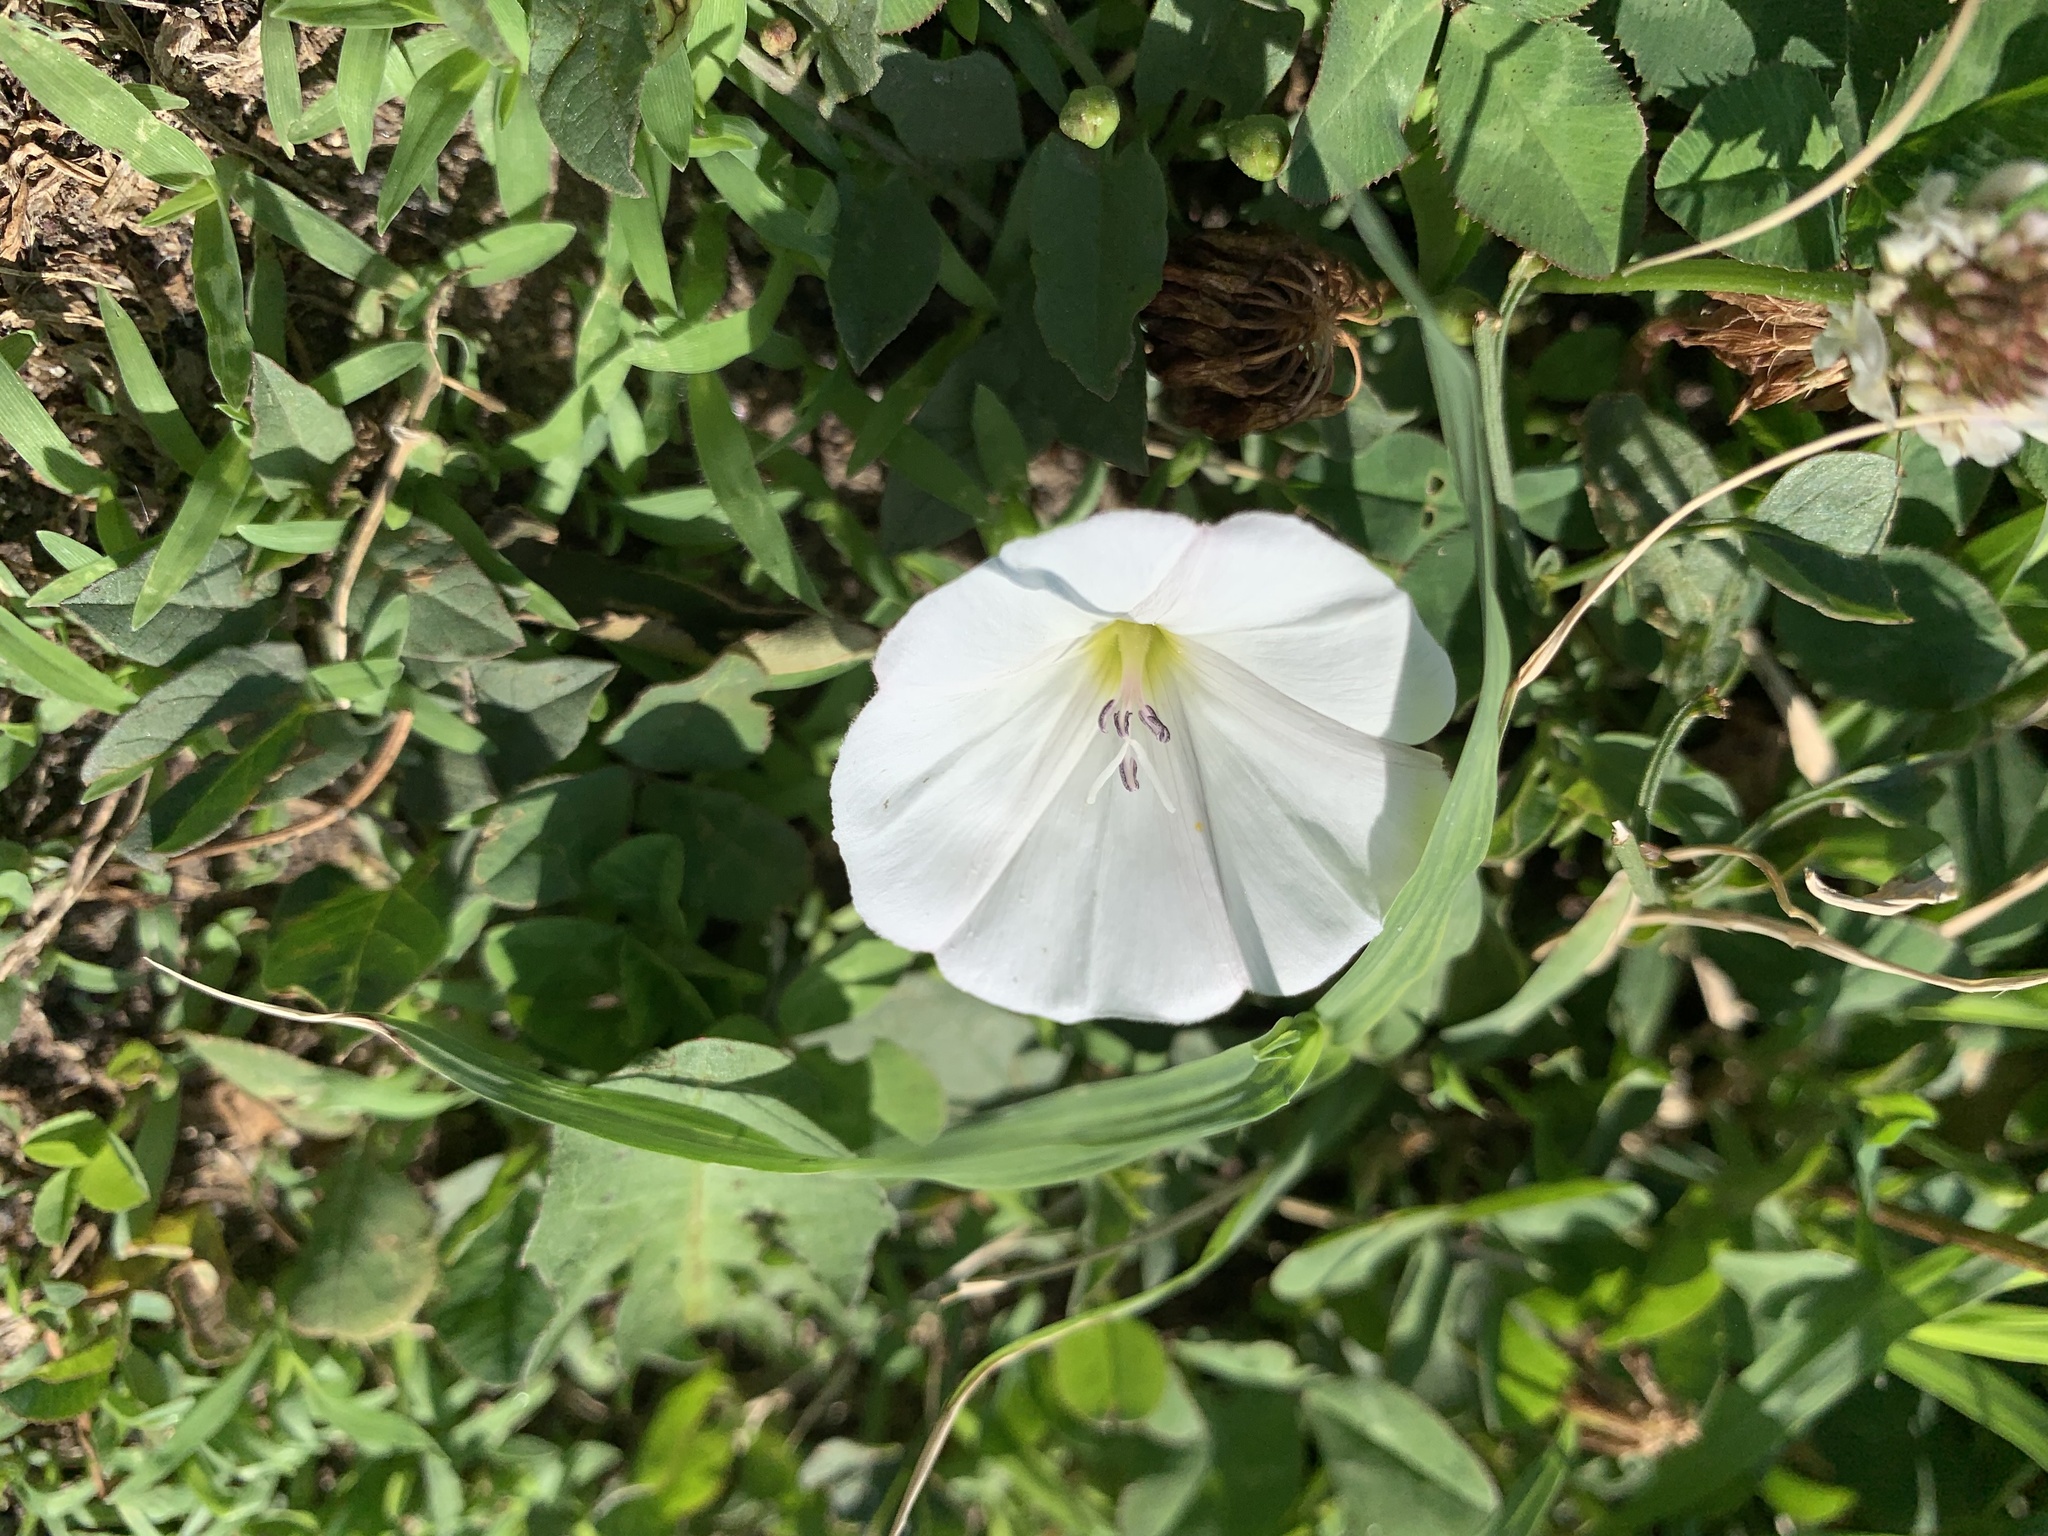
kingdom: Plantae
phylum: Tracheophyta
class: Magnoliopsida
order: Solanales
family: Convolvulaceae
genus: Convolvulus
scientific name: Convolvulus arvensis
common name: Field bindweed
